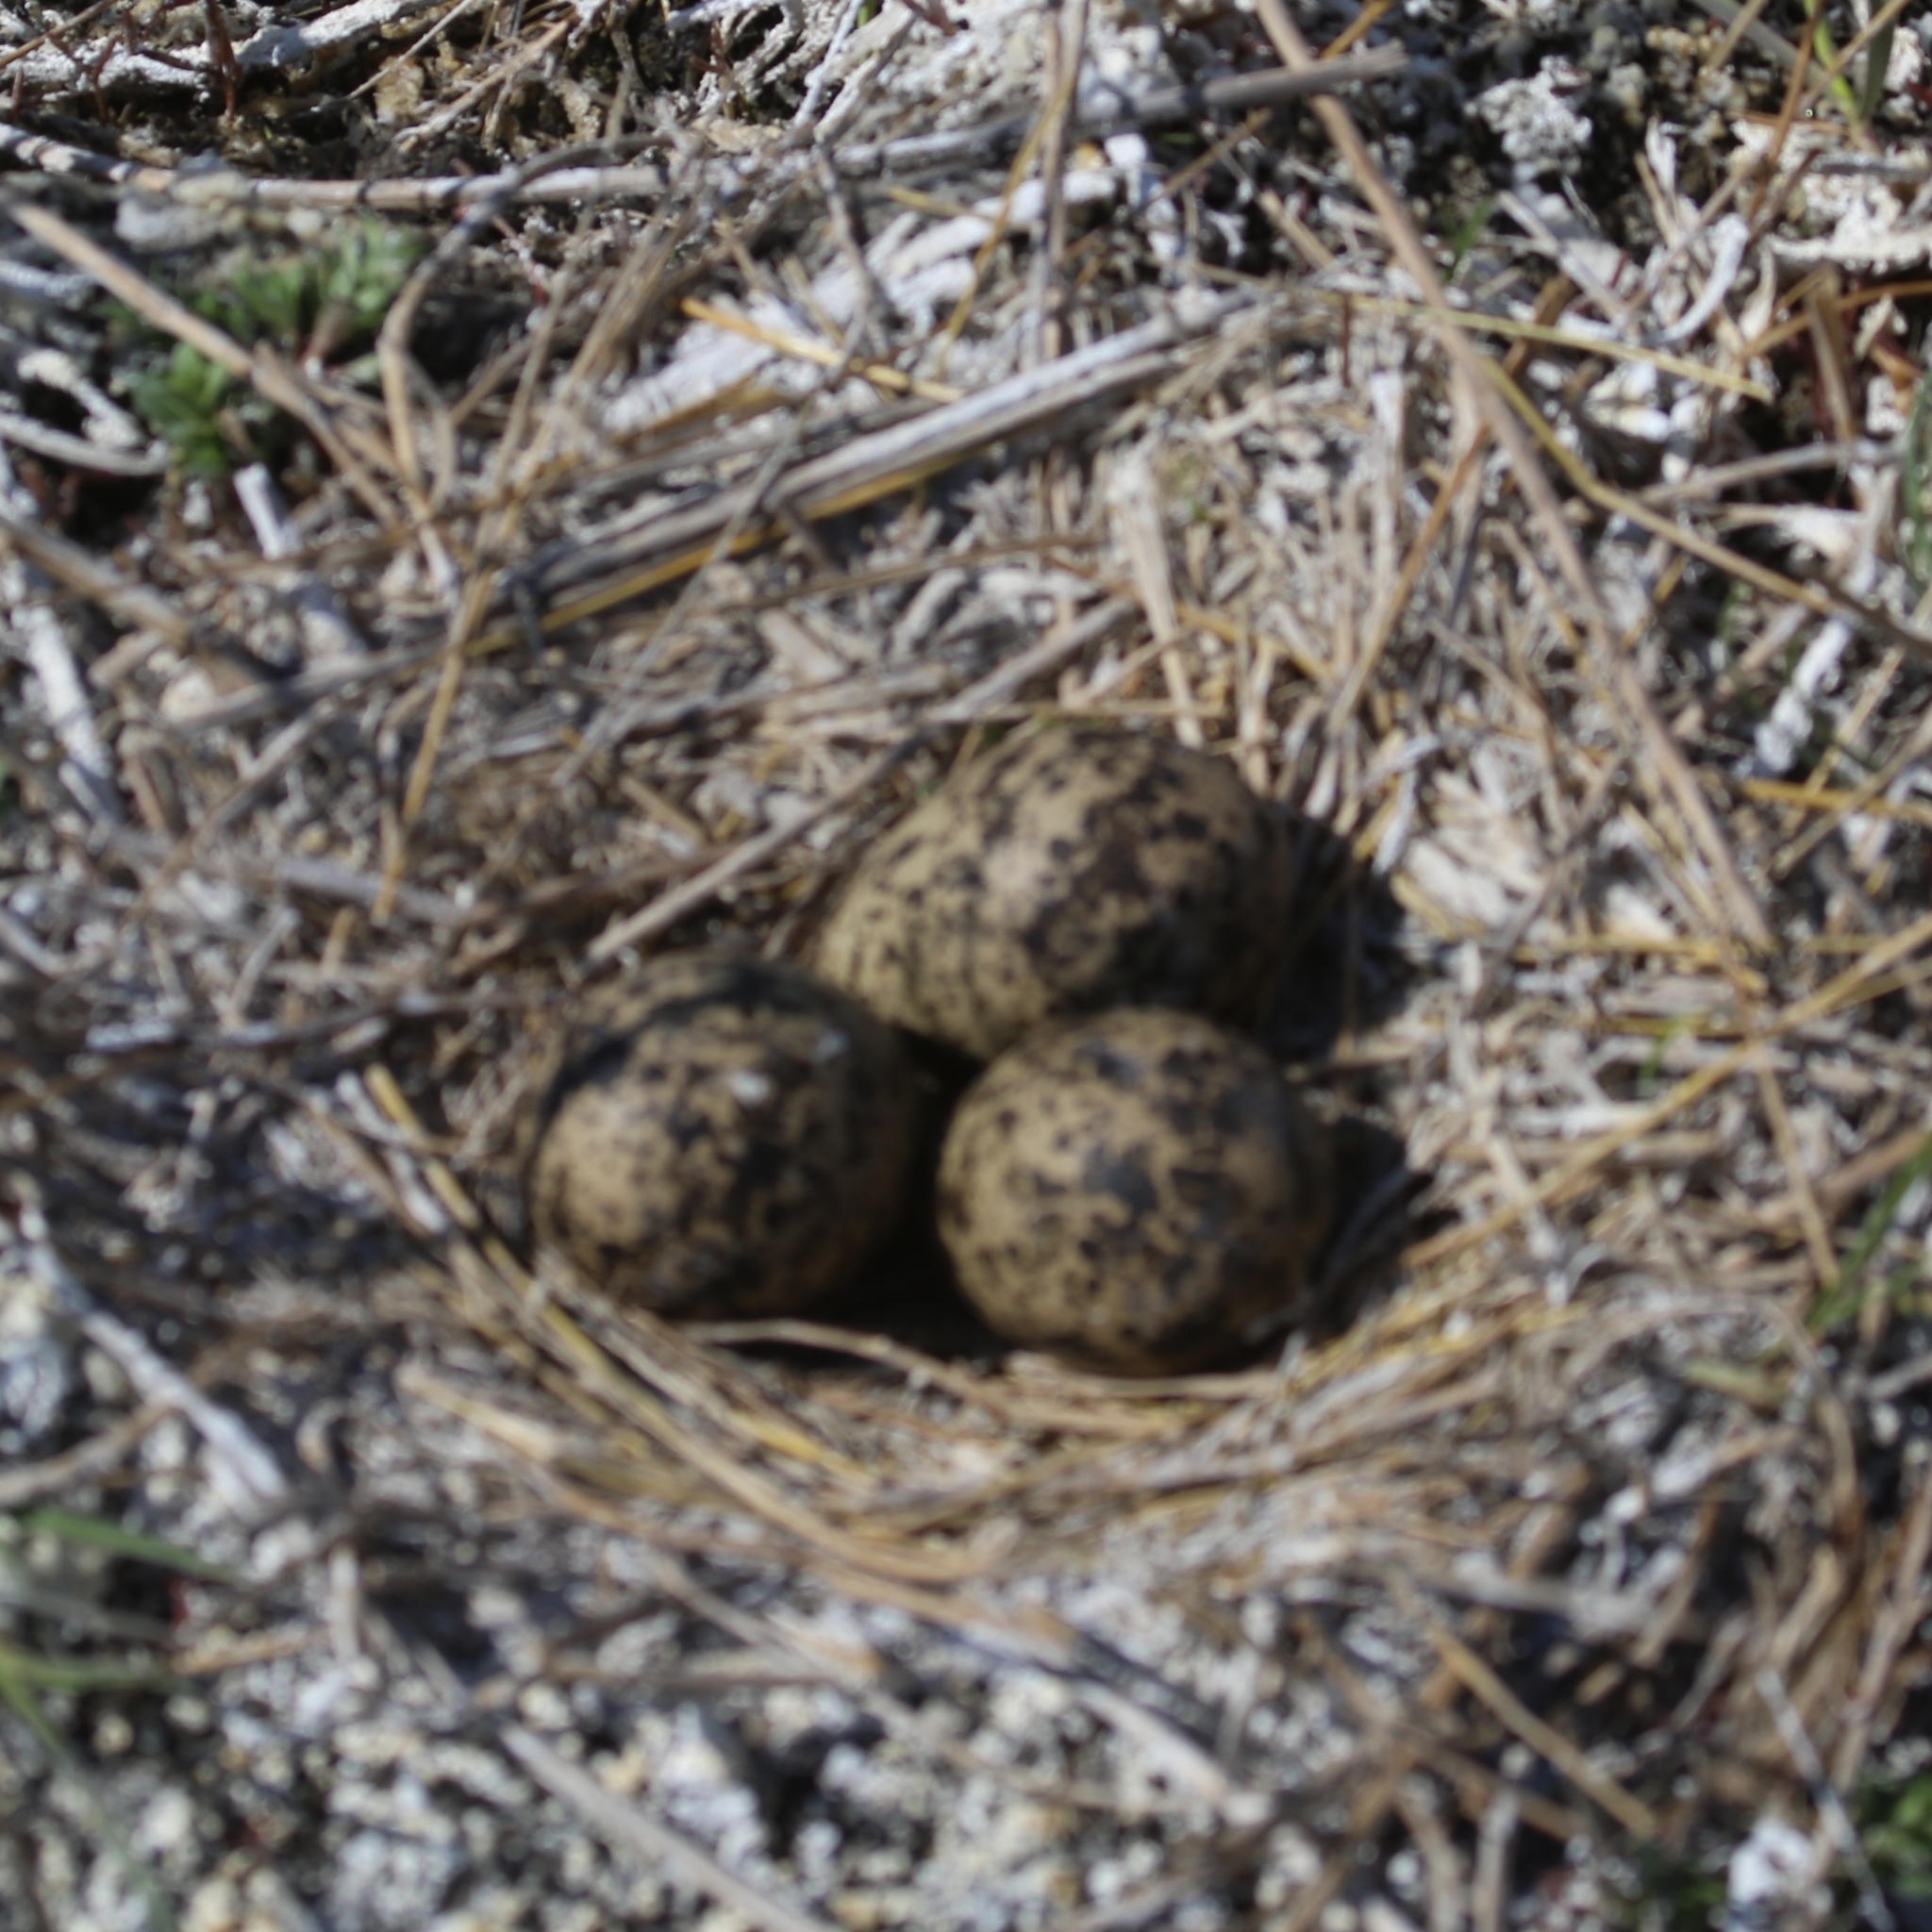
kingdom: Animalia
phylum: Chordata
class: Aves
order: Charadriiformes
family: Charadriidae
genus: Vanellus
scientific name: Vanellus vanellus
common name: Northern lapwing
